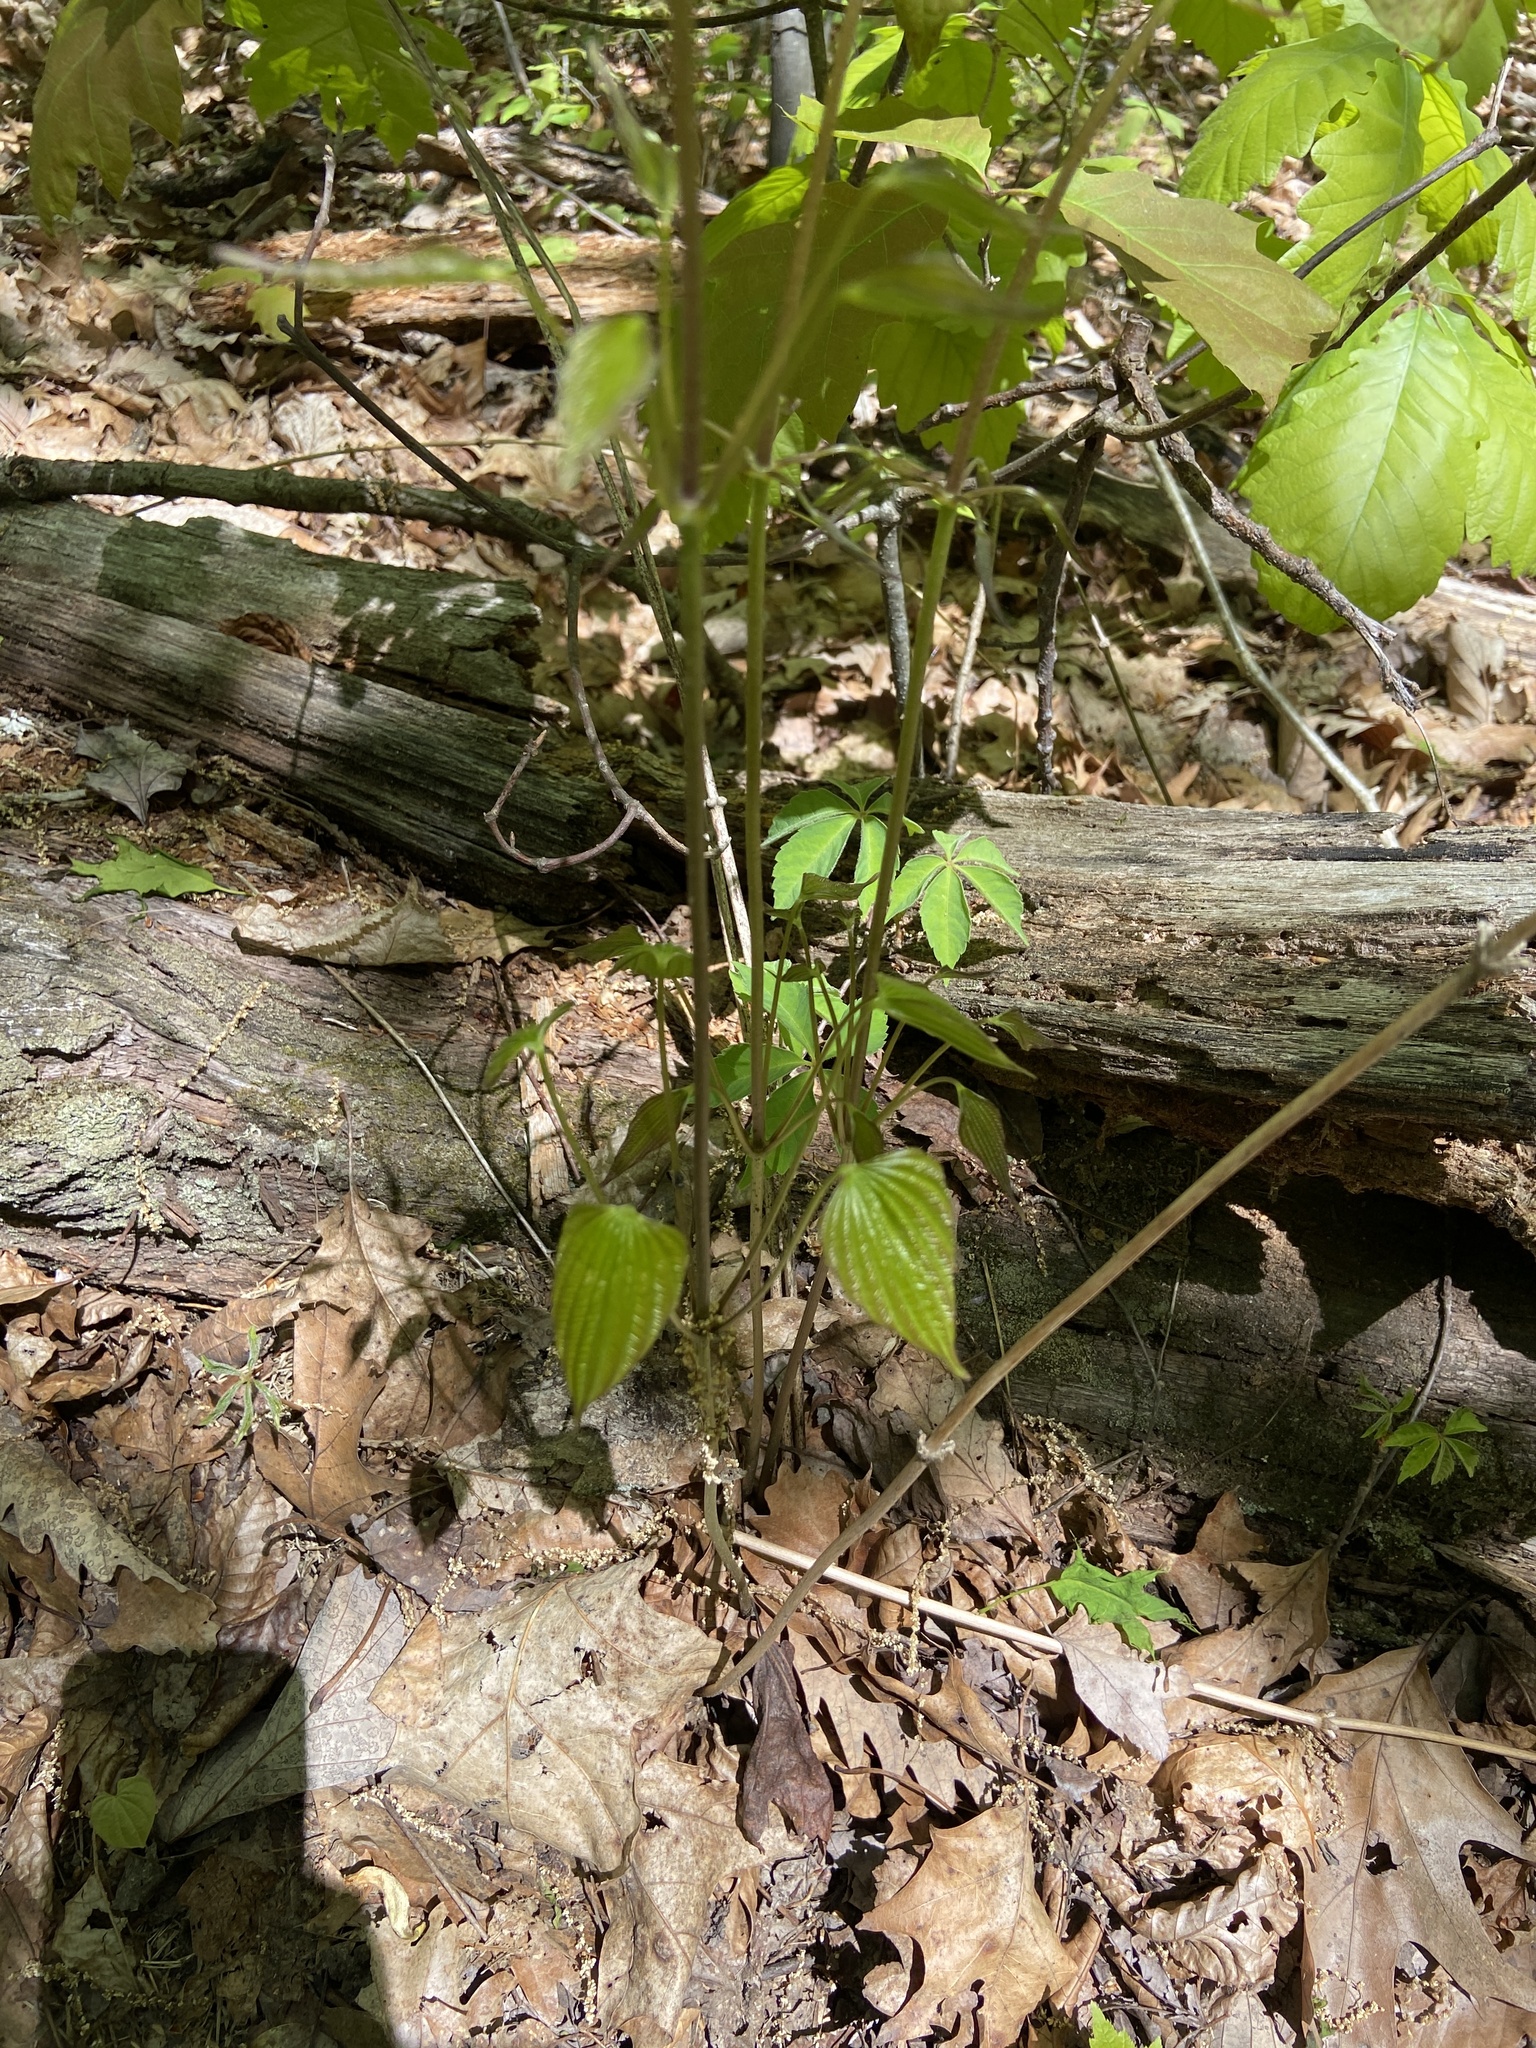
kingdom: Plantae
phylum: Tracheophyta
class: Liliopsida
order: Dioscoreales
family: Dioscoreaceae
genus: Dioscorea
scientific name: Dioscorea villosa
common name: Wild yam
